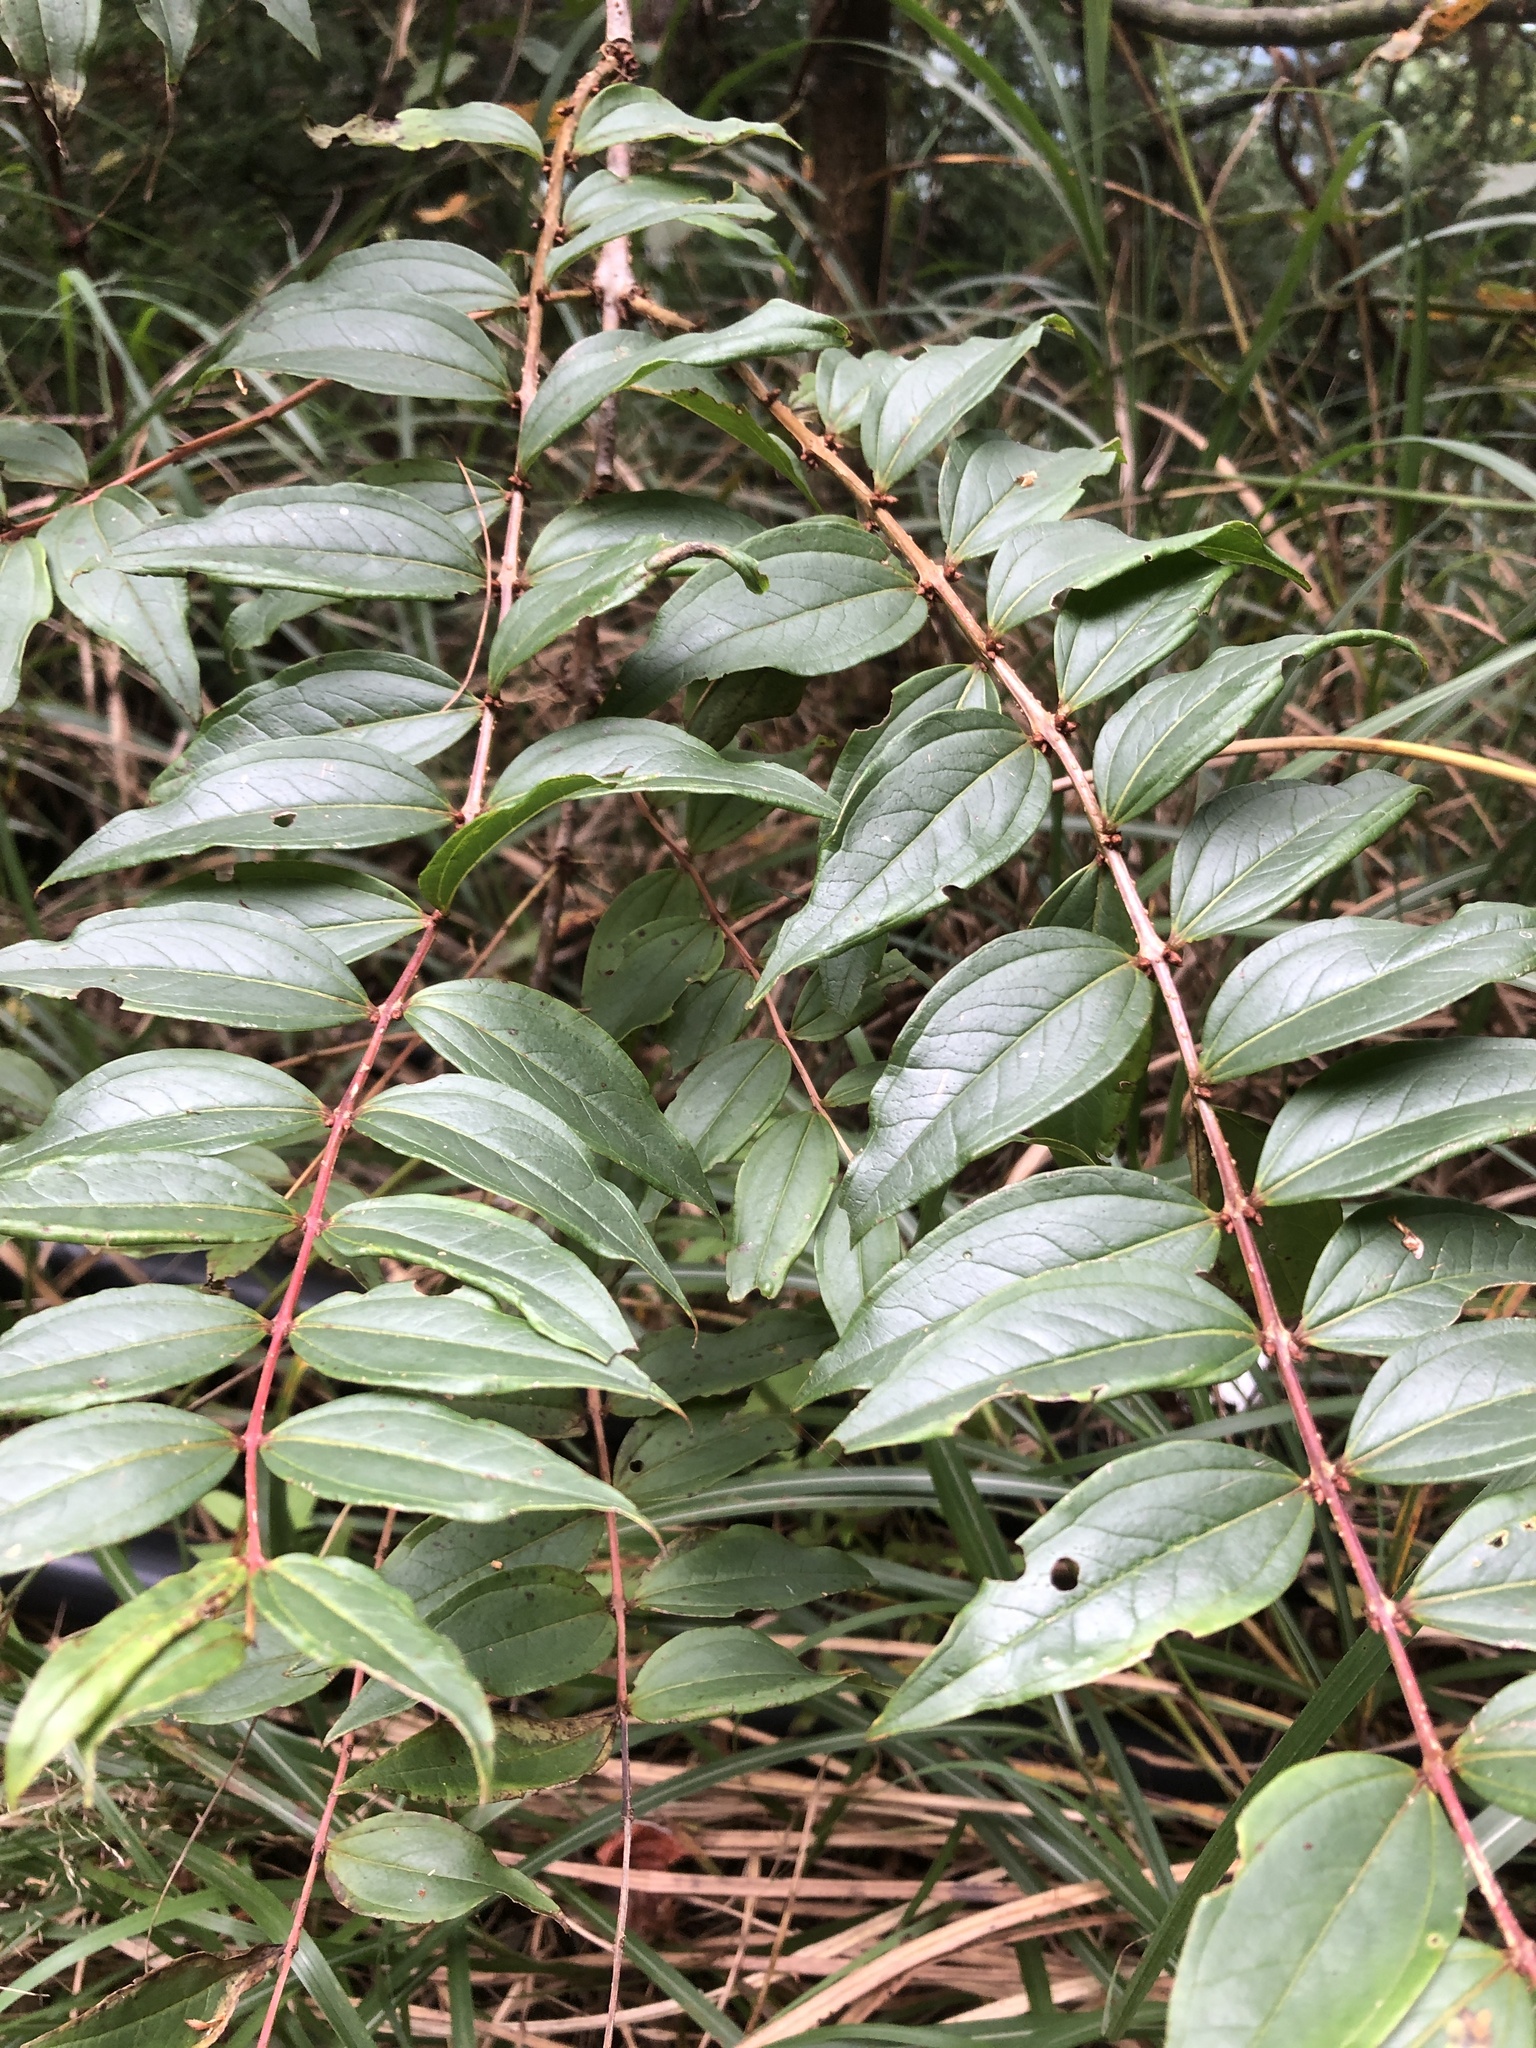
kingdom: Plantae
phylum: Tracheophyta
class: Magnoliopsida
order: Cucurbitales
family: Coriariaceae
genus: Coriaria
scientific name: Coriaria japonica
